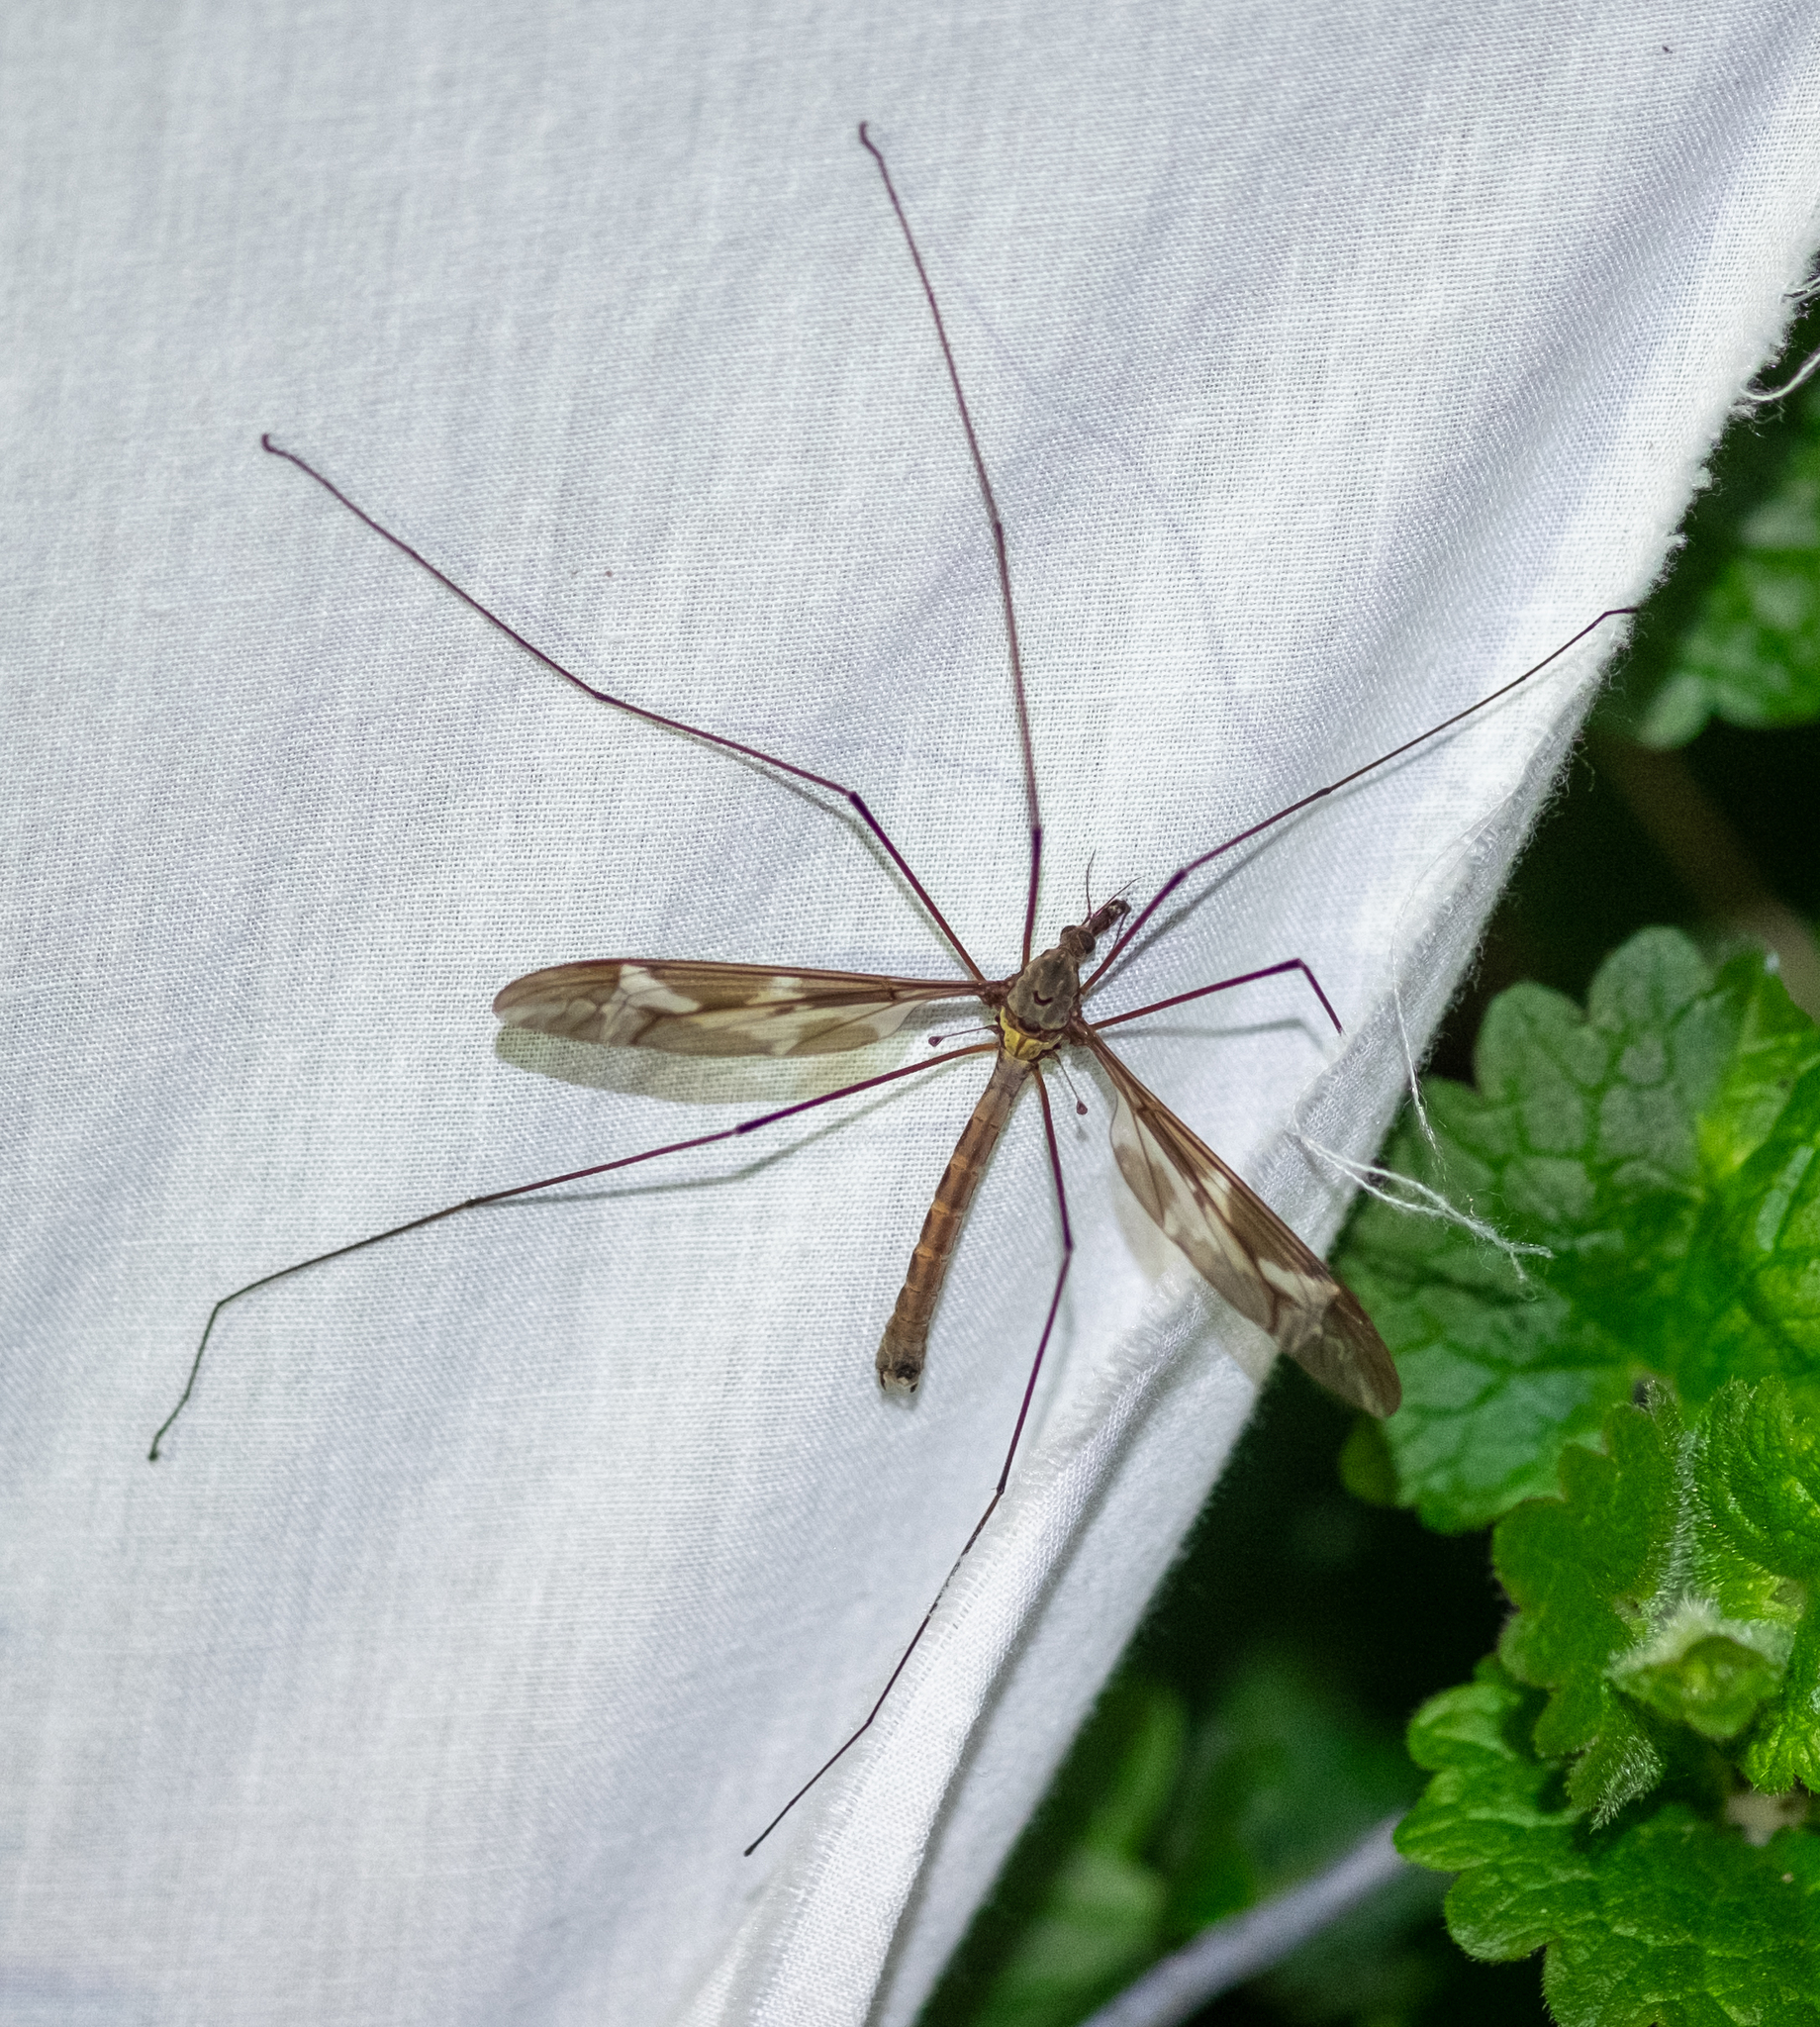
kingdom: Animalia
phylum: Arthropoda
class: Insecta
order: Diptera
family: Tipulidae
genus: Tipula
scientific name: Tipula maxima
